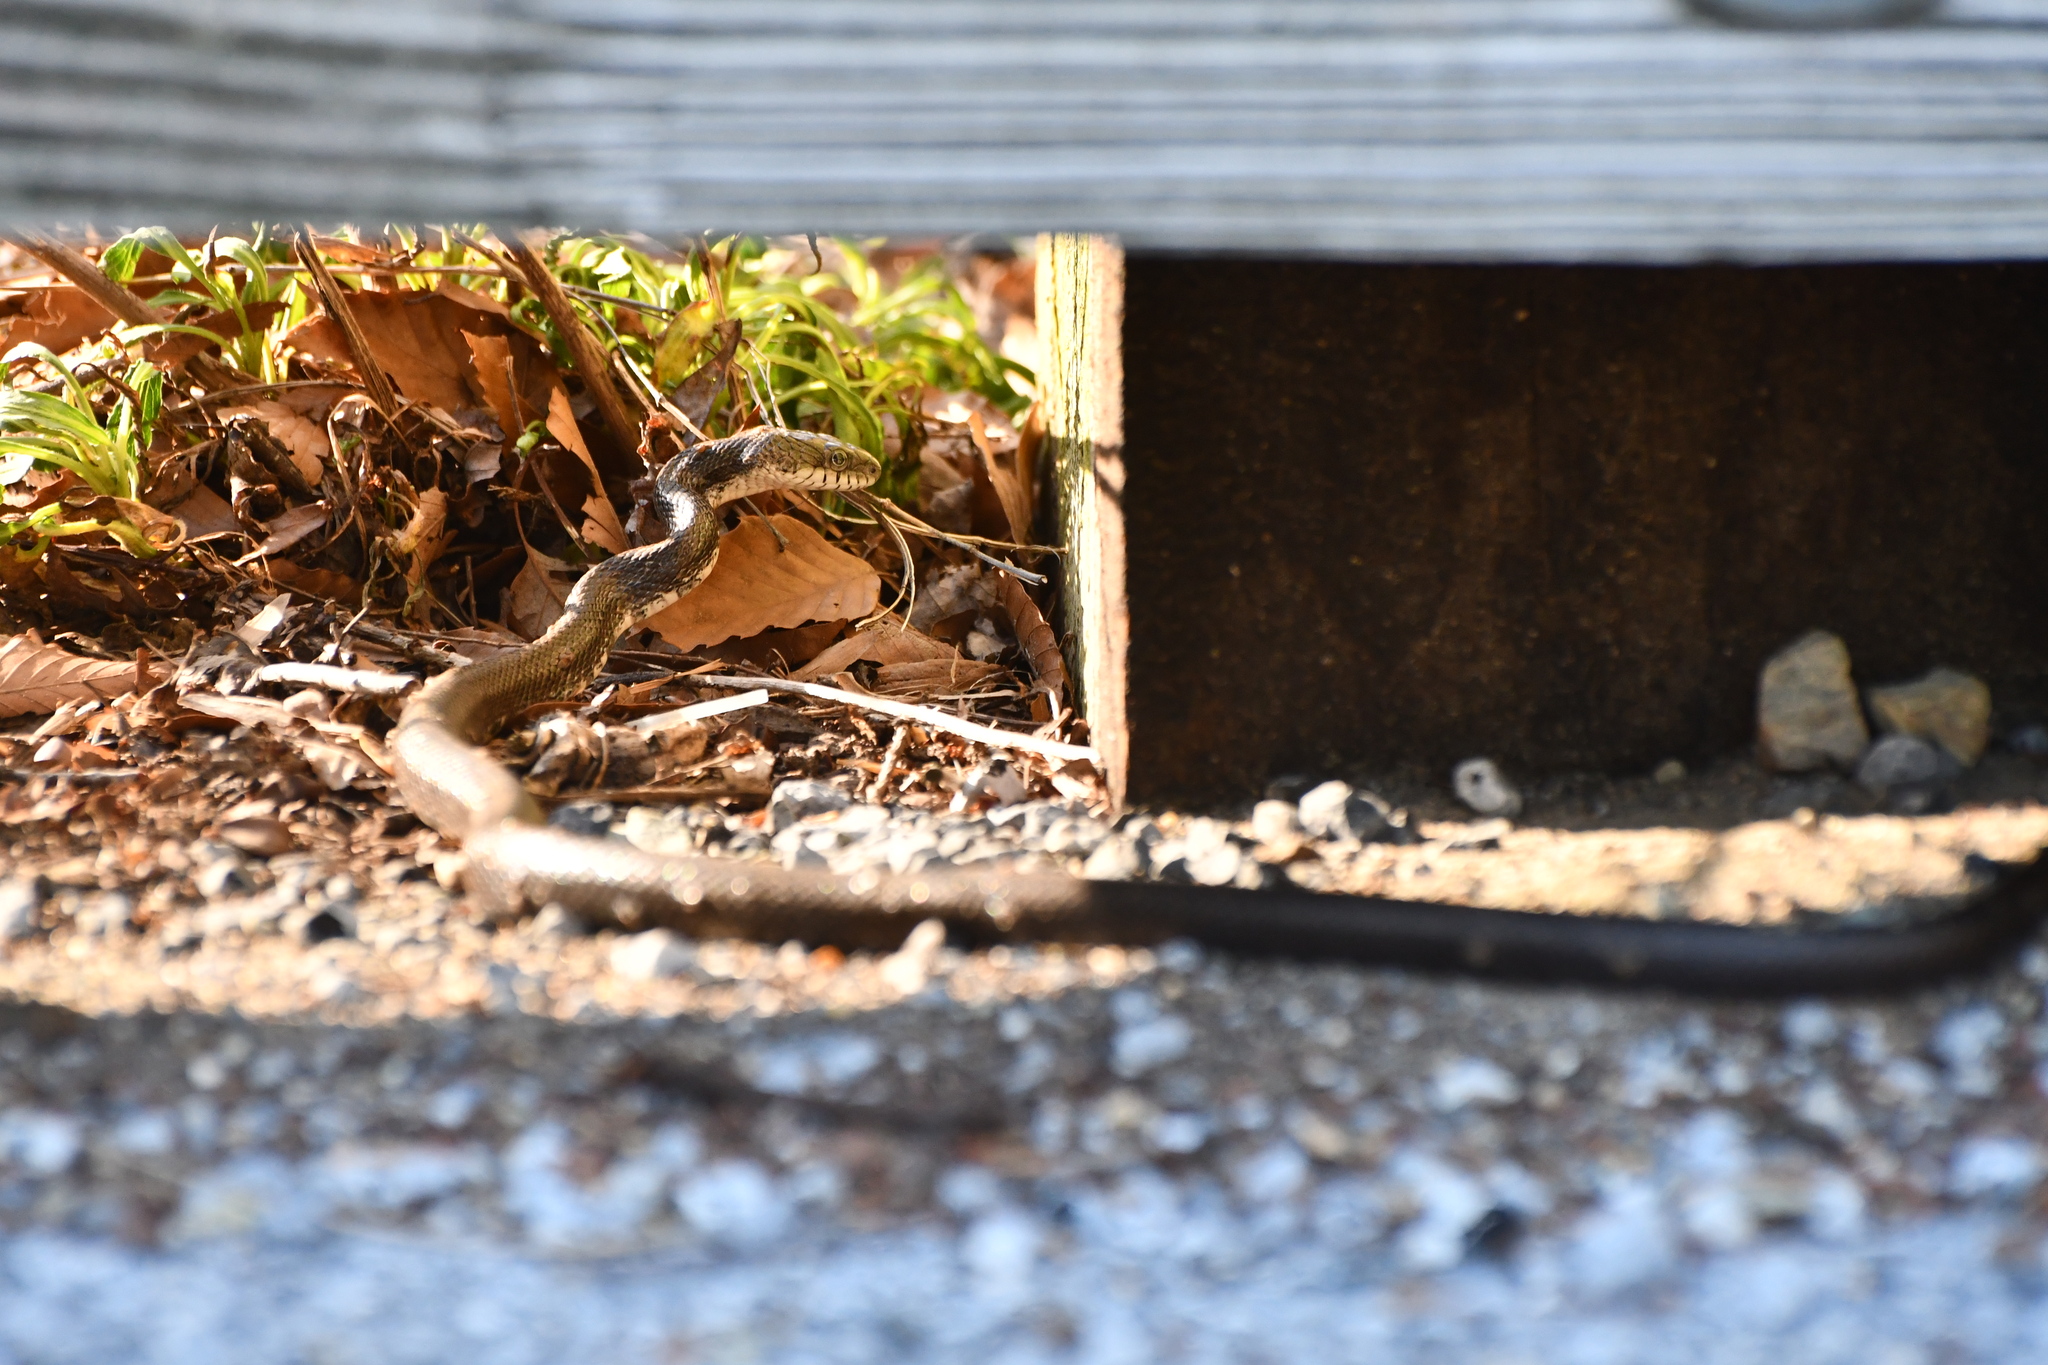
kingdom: Animalia
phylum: Chordata
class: Squamata
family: Colubridae
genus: Pantherophis
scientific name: Pantherophis
